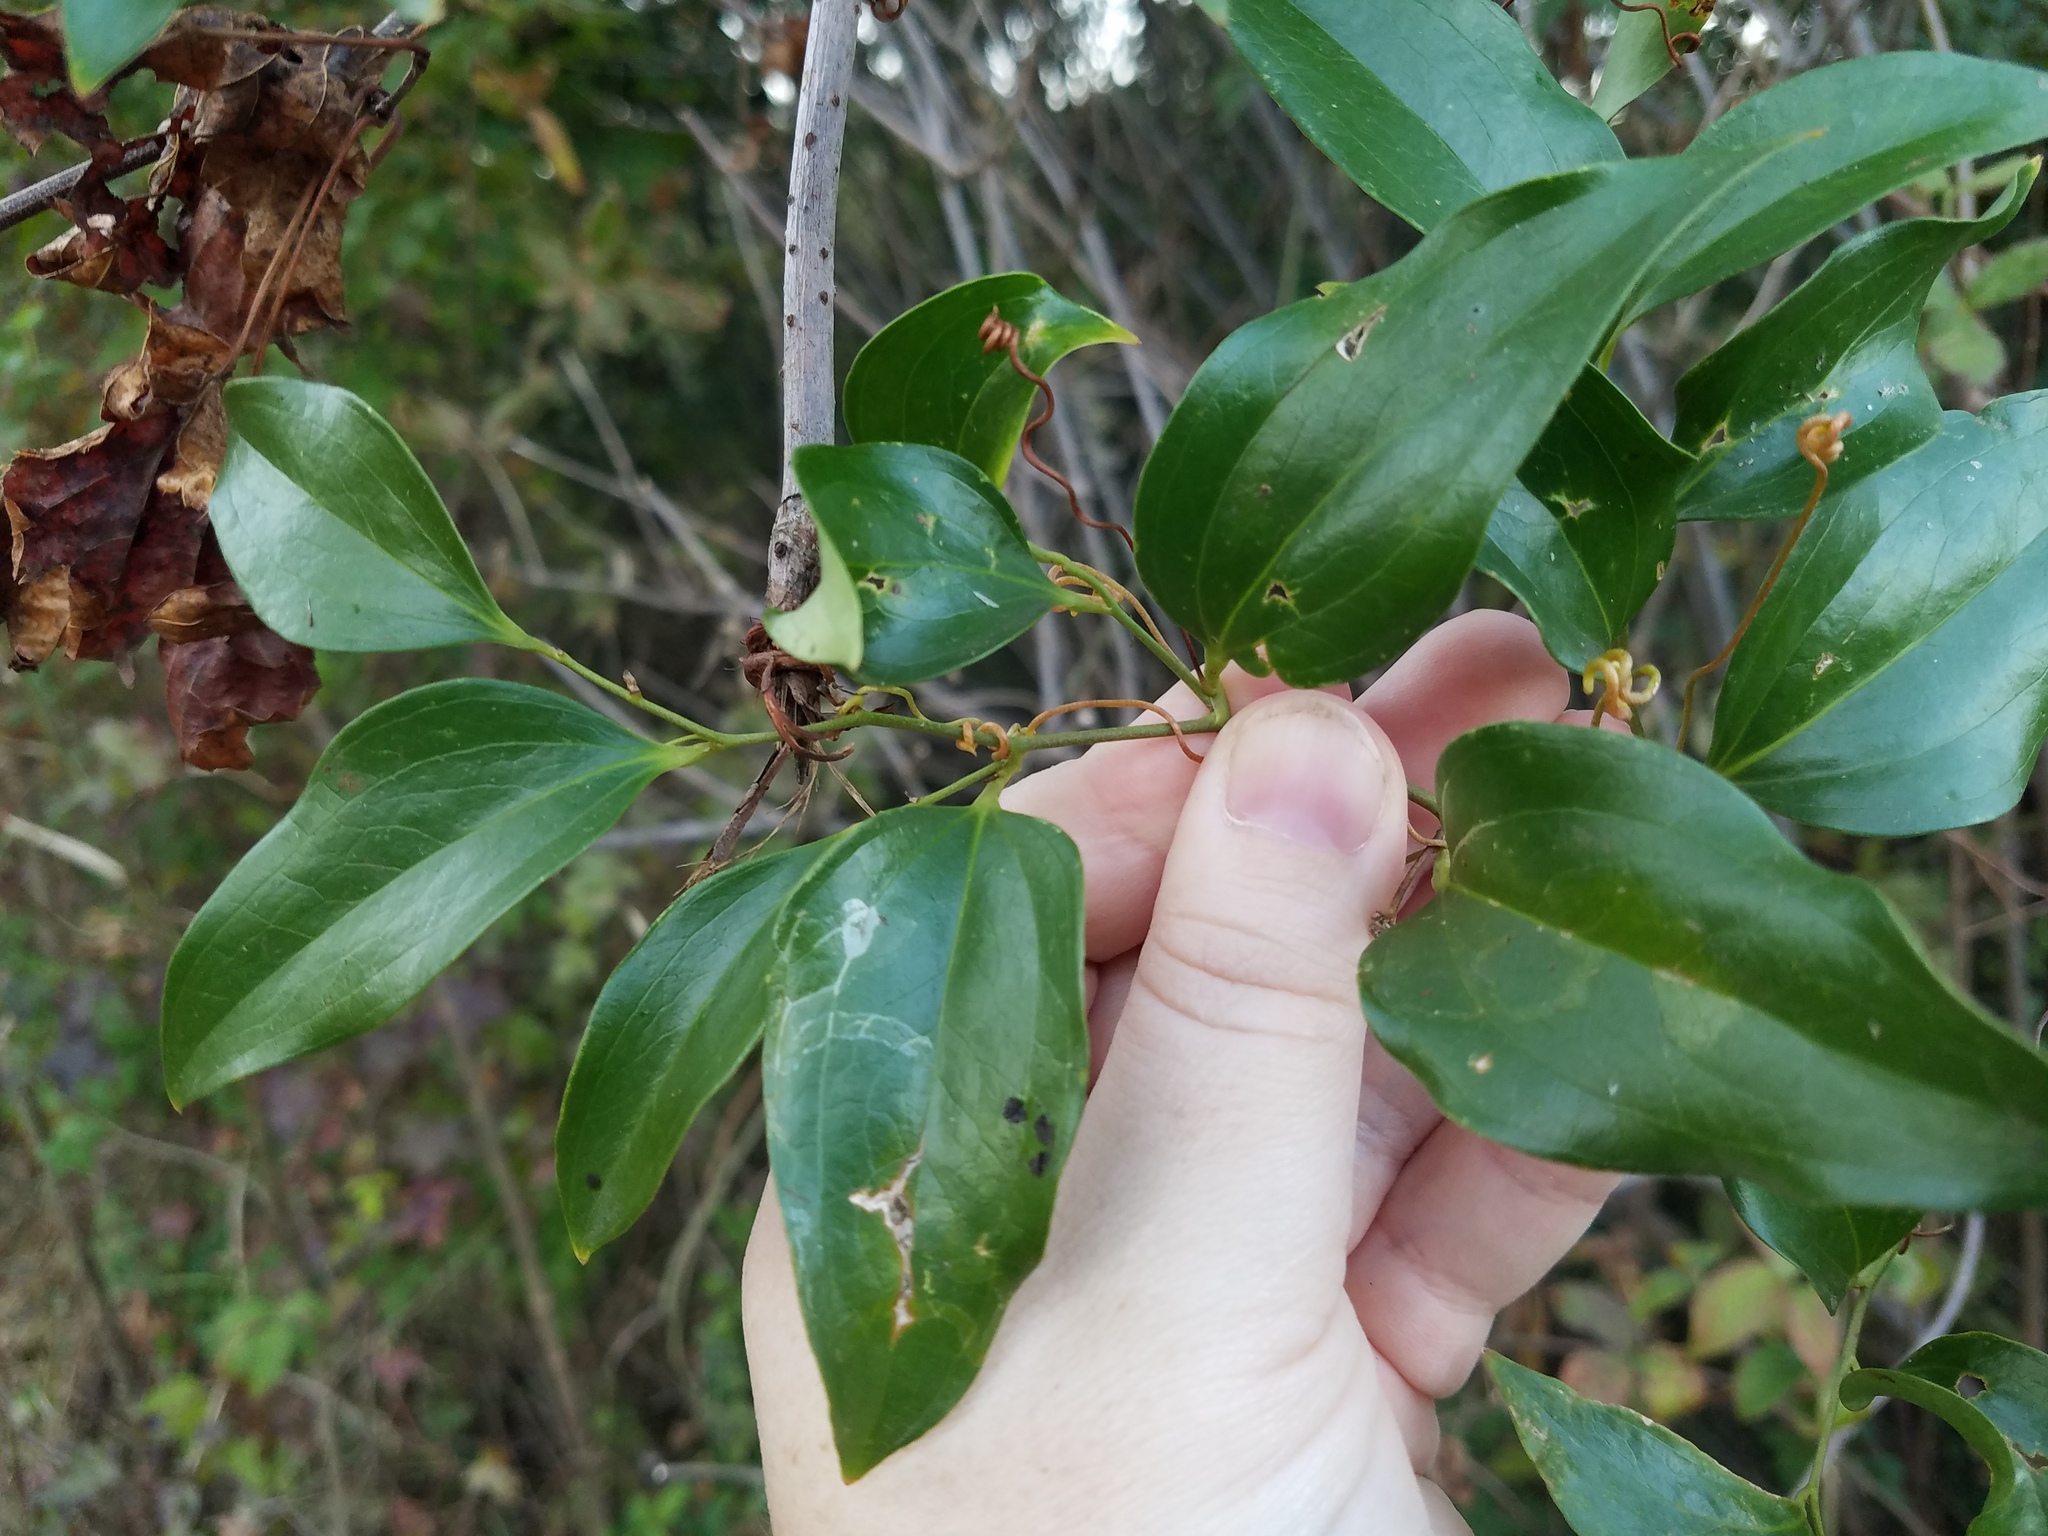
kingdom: Plantae
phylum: Tracheophyta
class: Liliopsida
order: Liliales
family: Smilacaceae
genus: Smilax
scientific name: Smilax maritima
